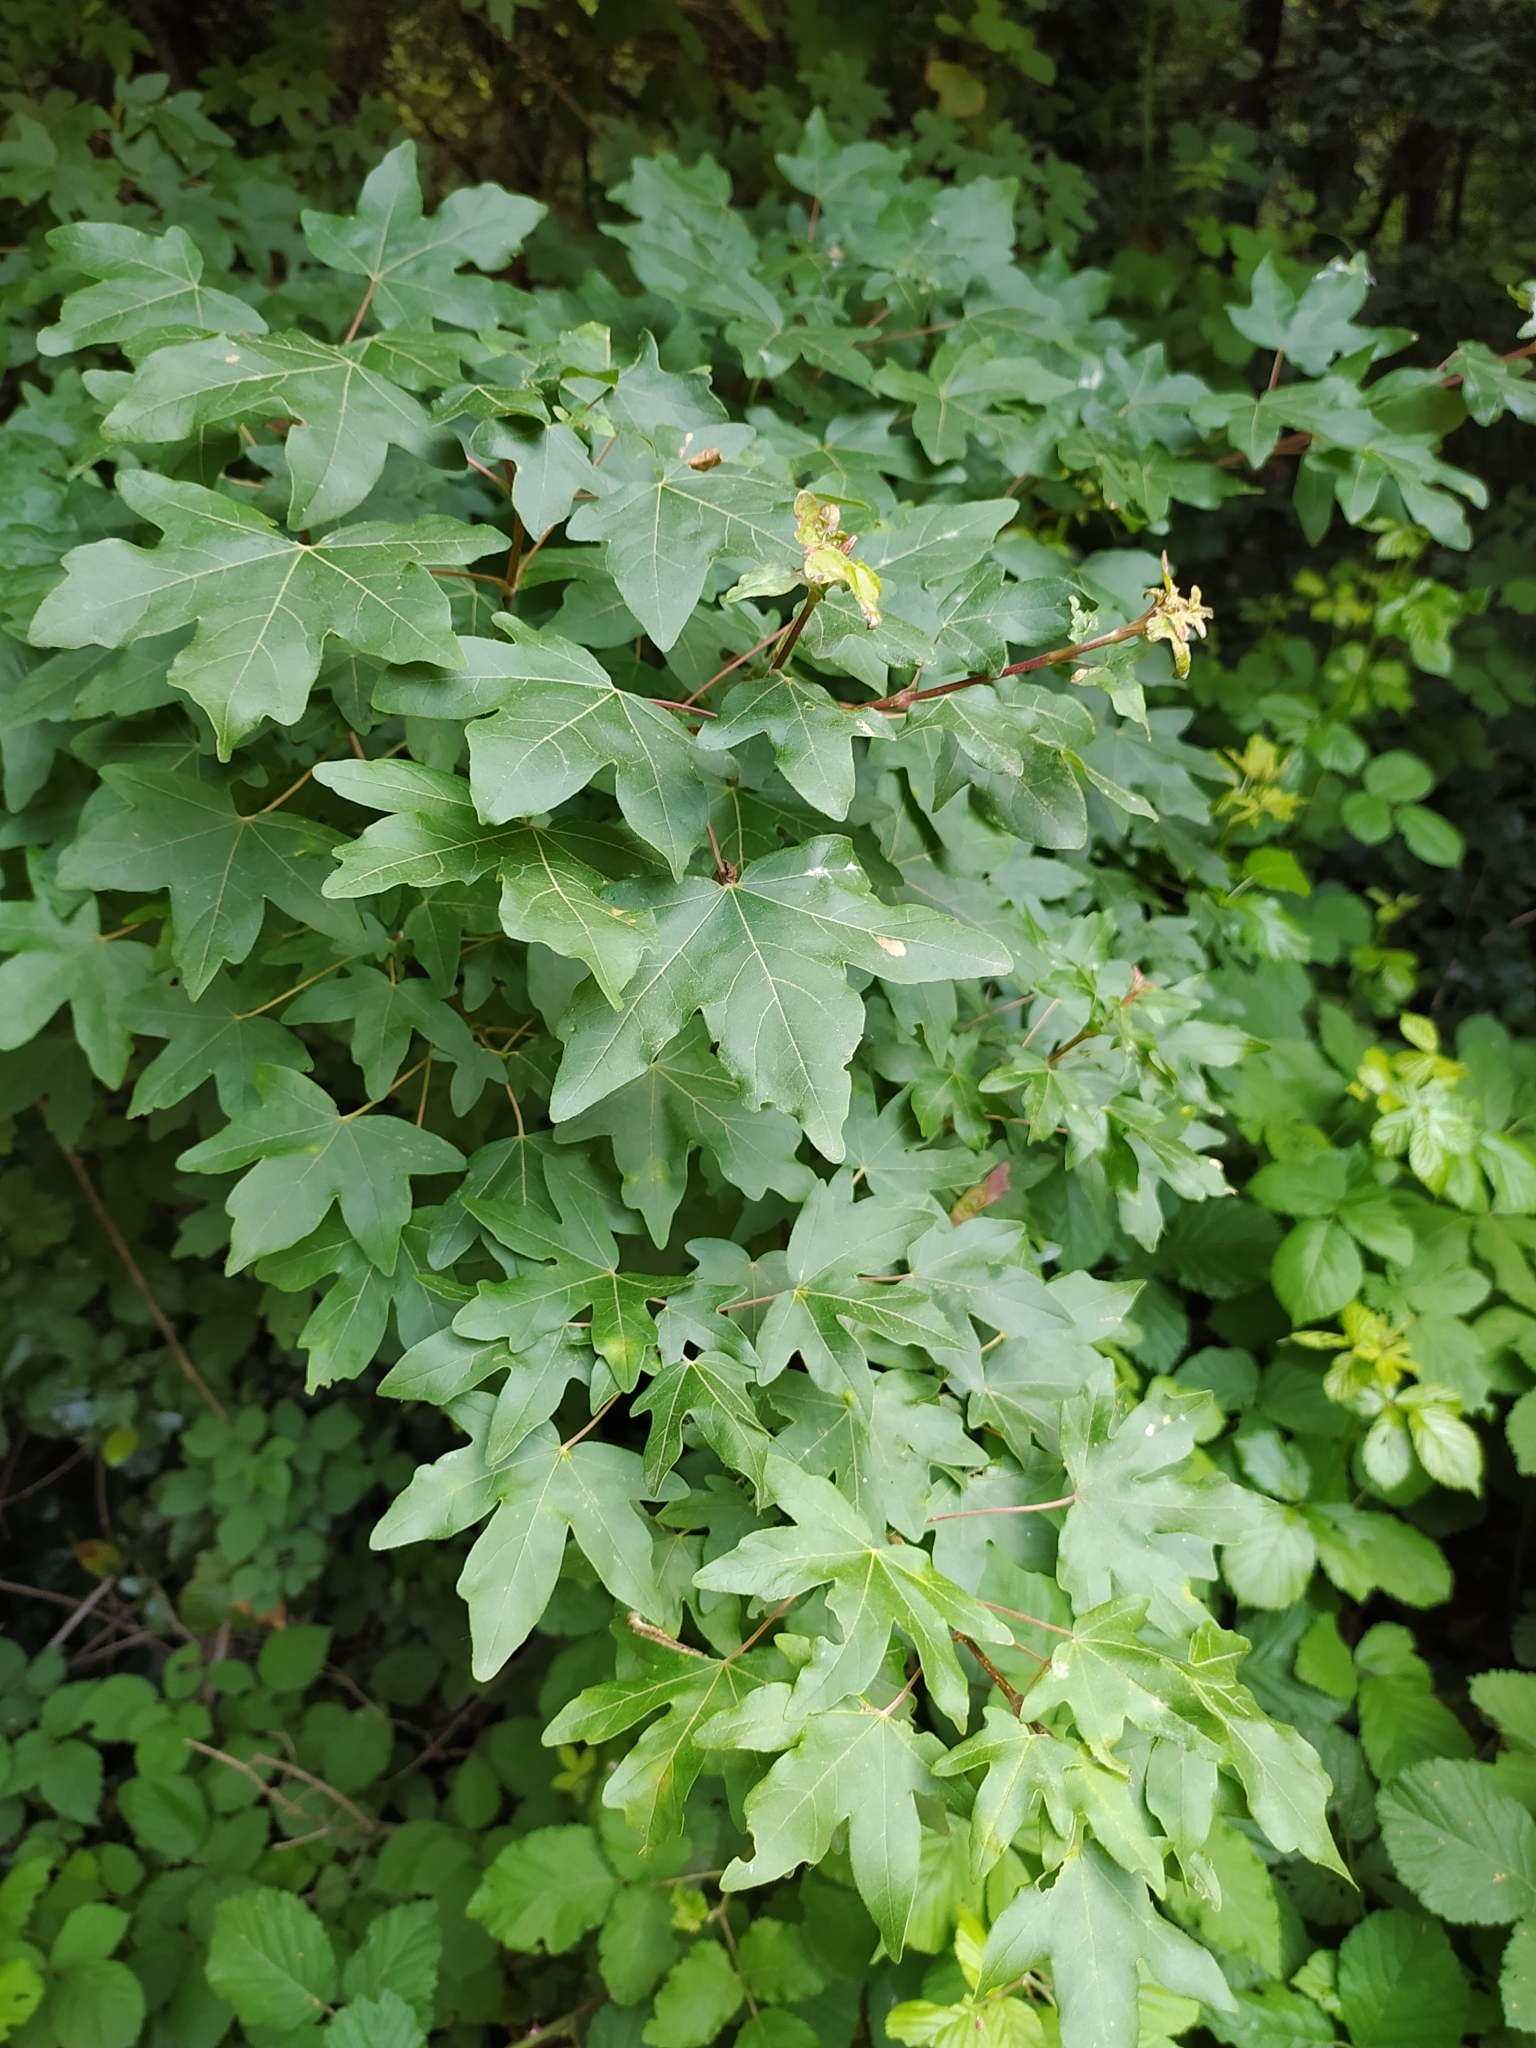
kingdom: Plantae
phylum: Tracheophyta
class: Magnoliopsida
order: Sapindales
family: Sapindaceae
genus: Acer
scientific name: Acer campestre
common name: Field maple
